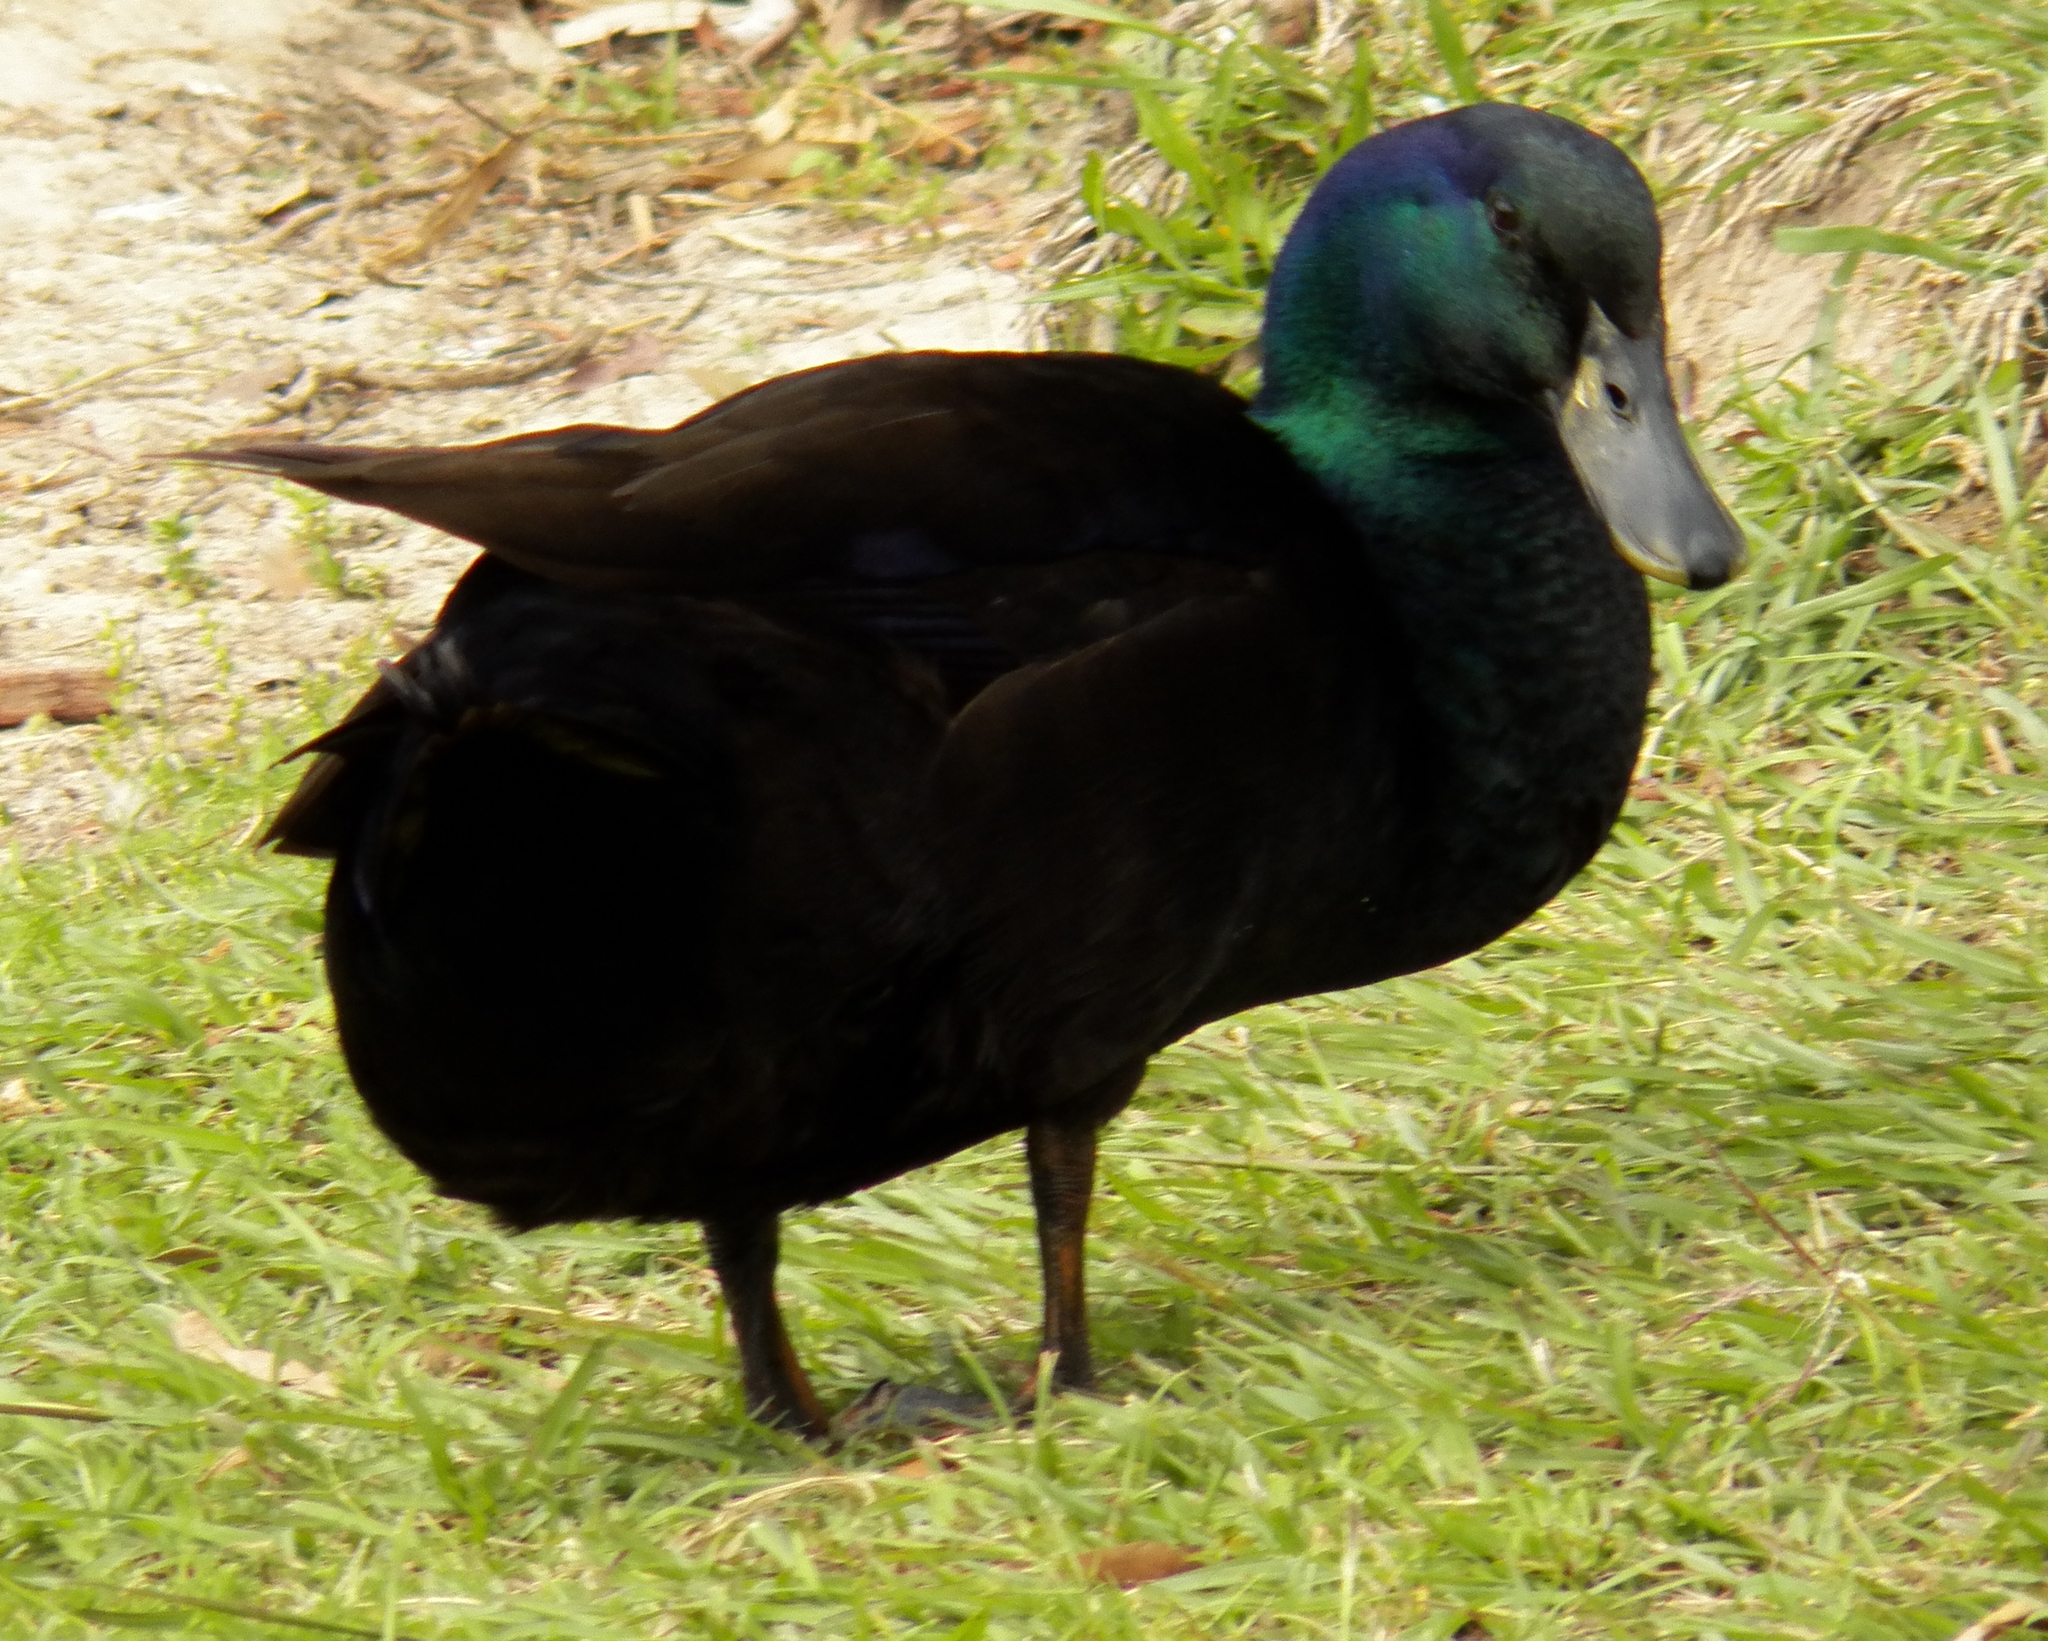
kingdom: Animalia
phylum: Chordata
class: Aves
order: Anseriformes
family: Anatidae
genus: Anas
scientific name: Anas platyrhynchos
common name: Mallard
